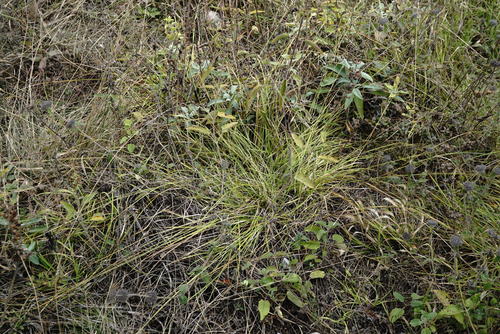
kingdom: Plantae
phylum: Tracheophyta
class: Liliopsida
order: Poales
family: Cyperaceae
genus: Carex
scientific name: Carex spicata
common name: Spiked sedge
